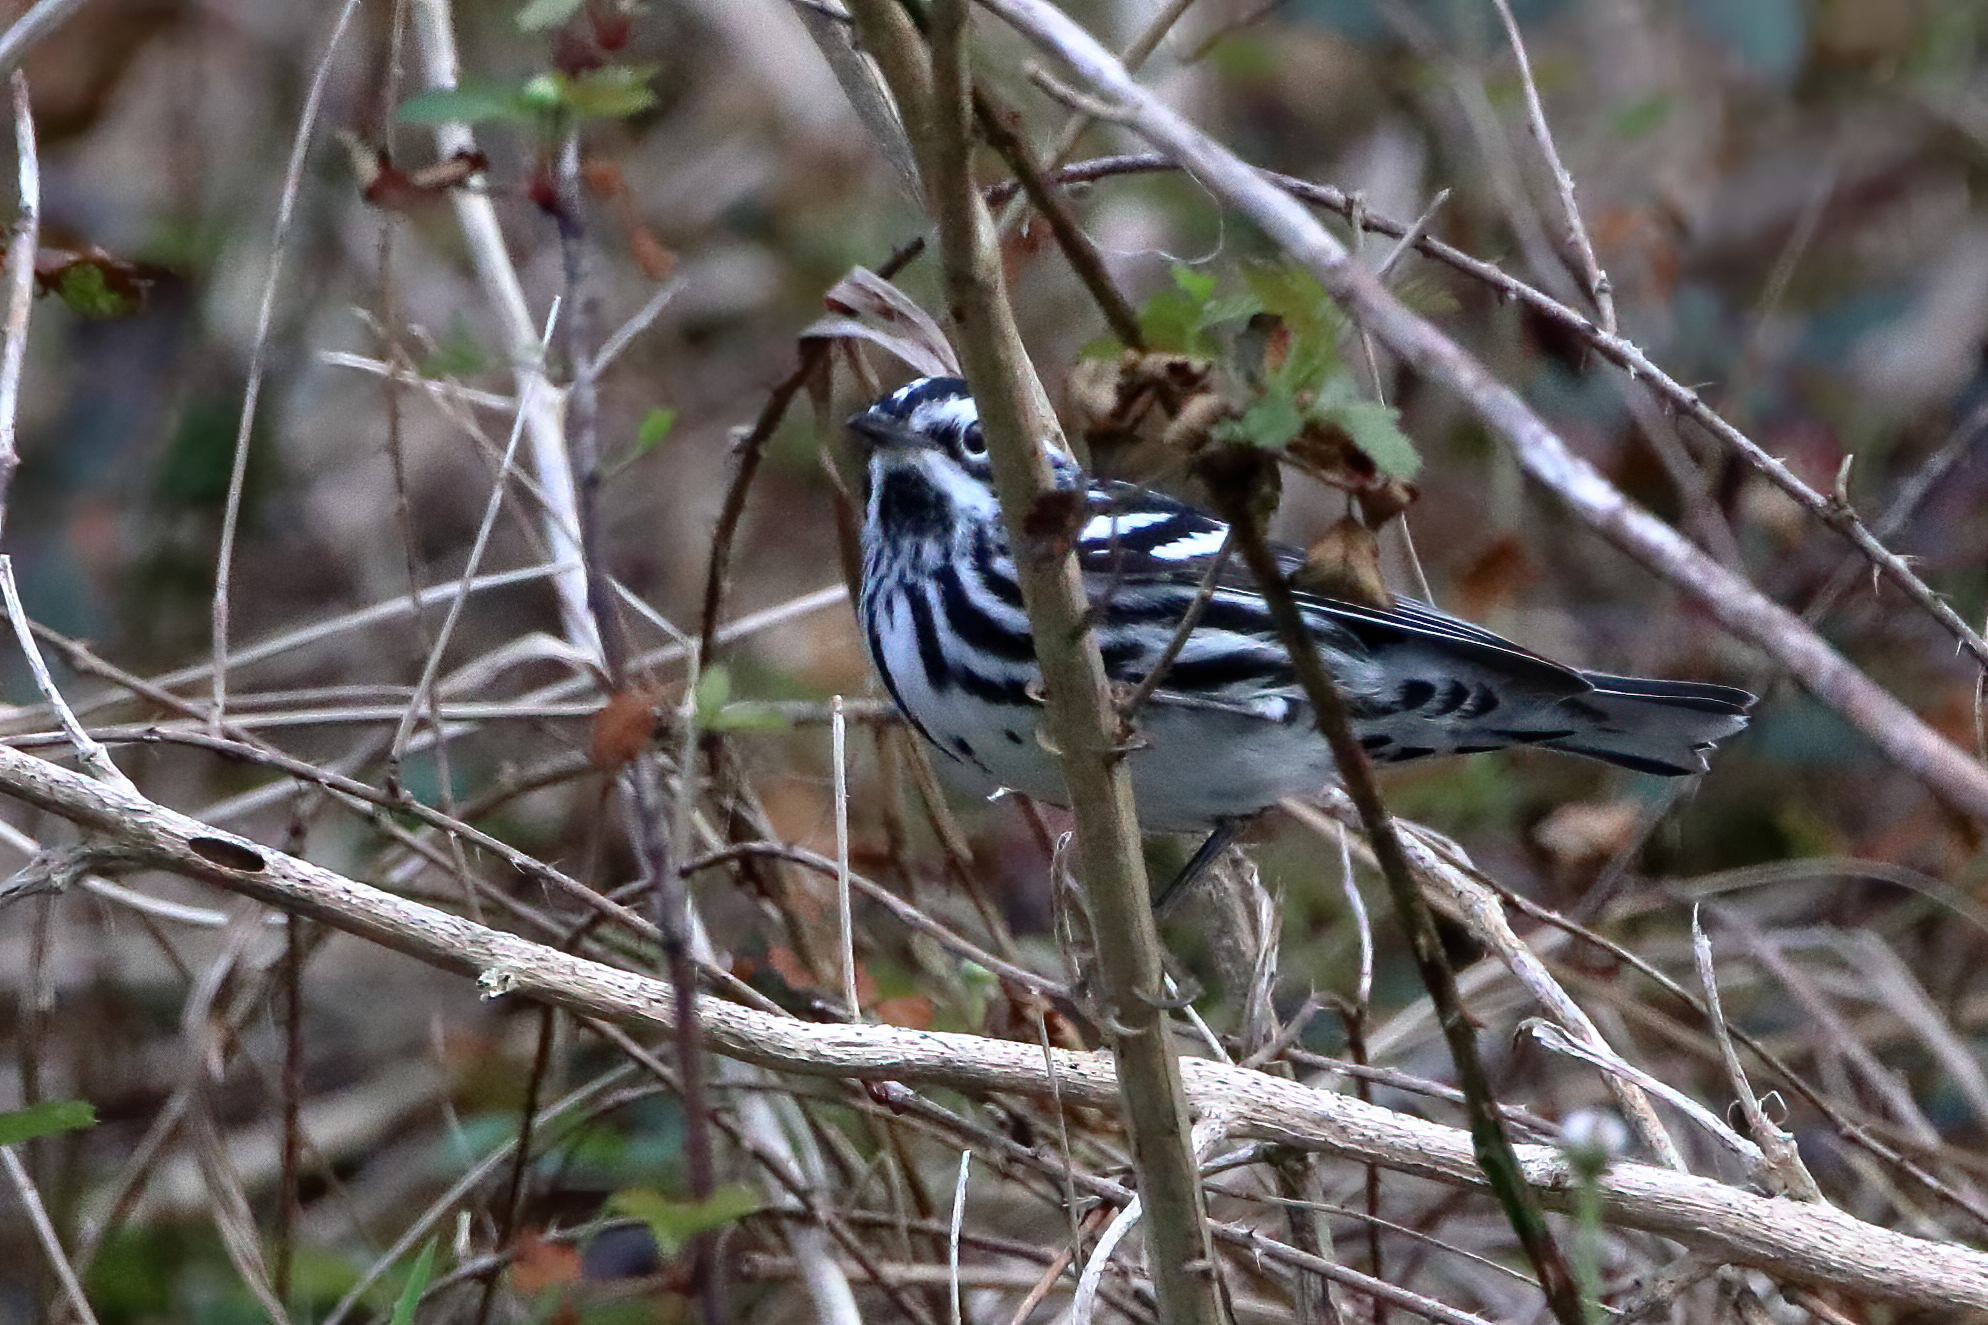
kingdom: Animalia
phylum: Chordata
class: Aves
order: Passeriformes
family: Parulidae
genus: Mniotilta
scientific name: Mniotilta varia
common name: Black-and-white warbler
